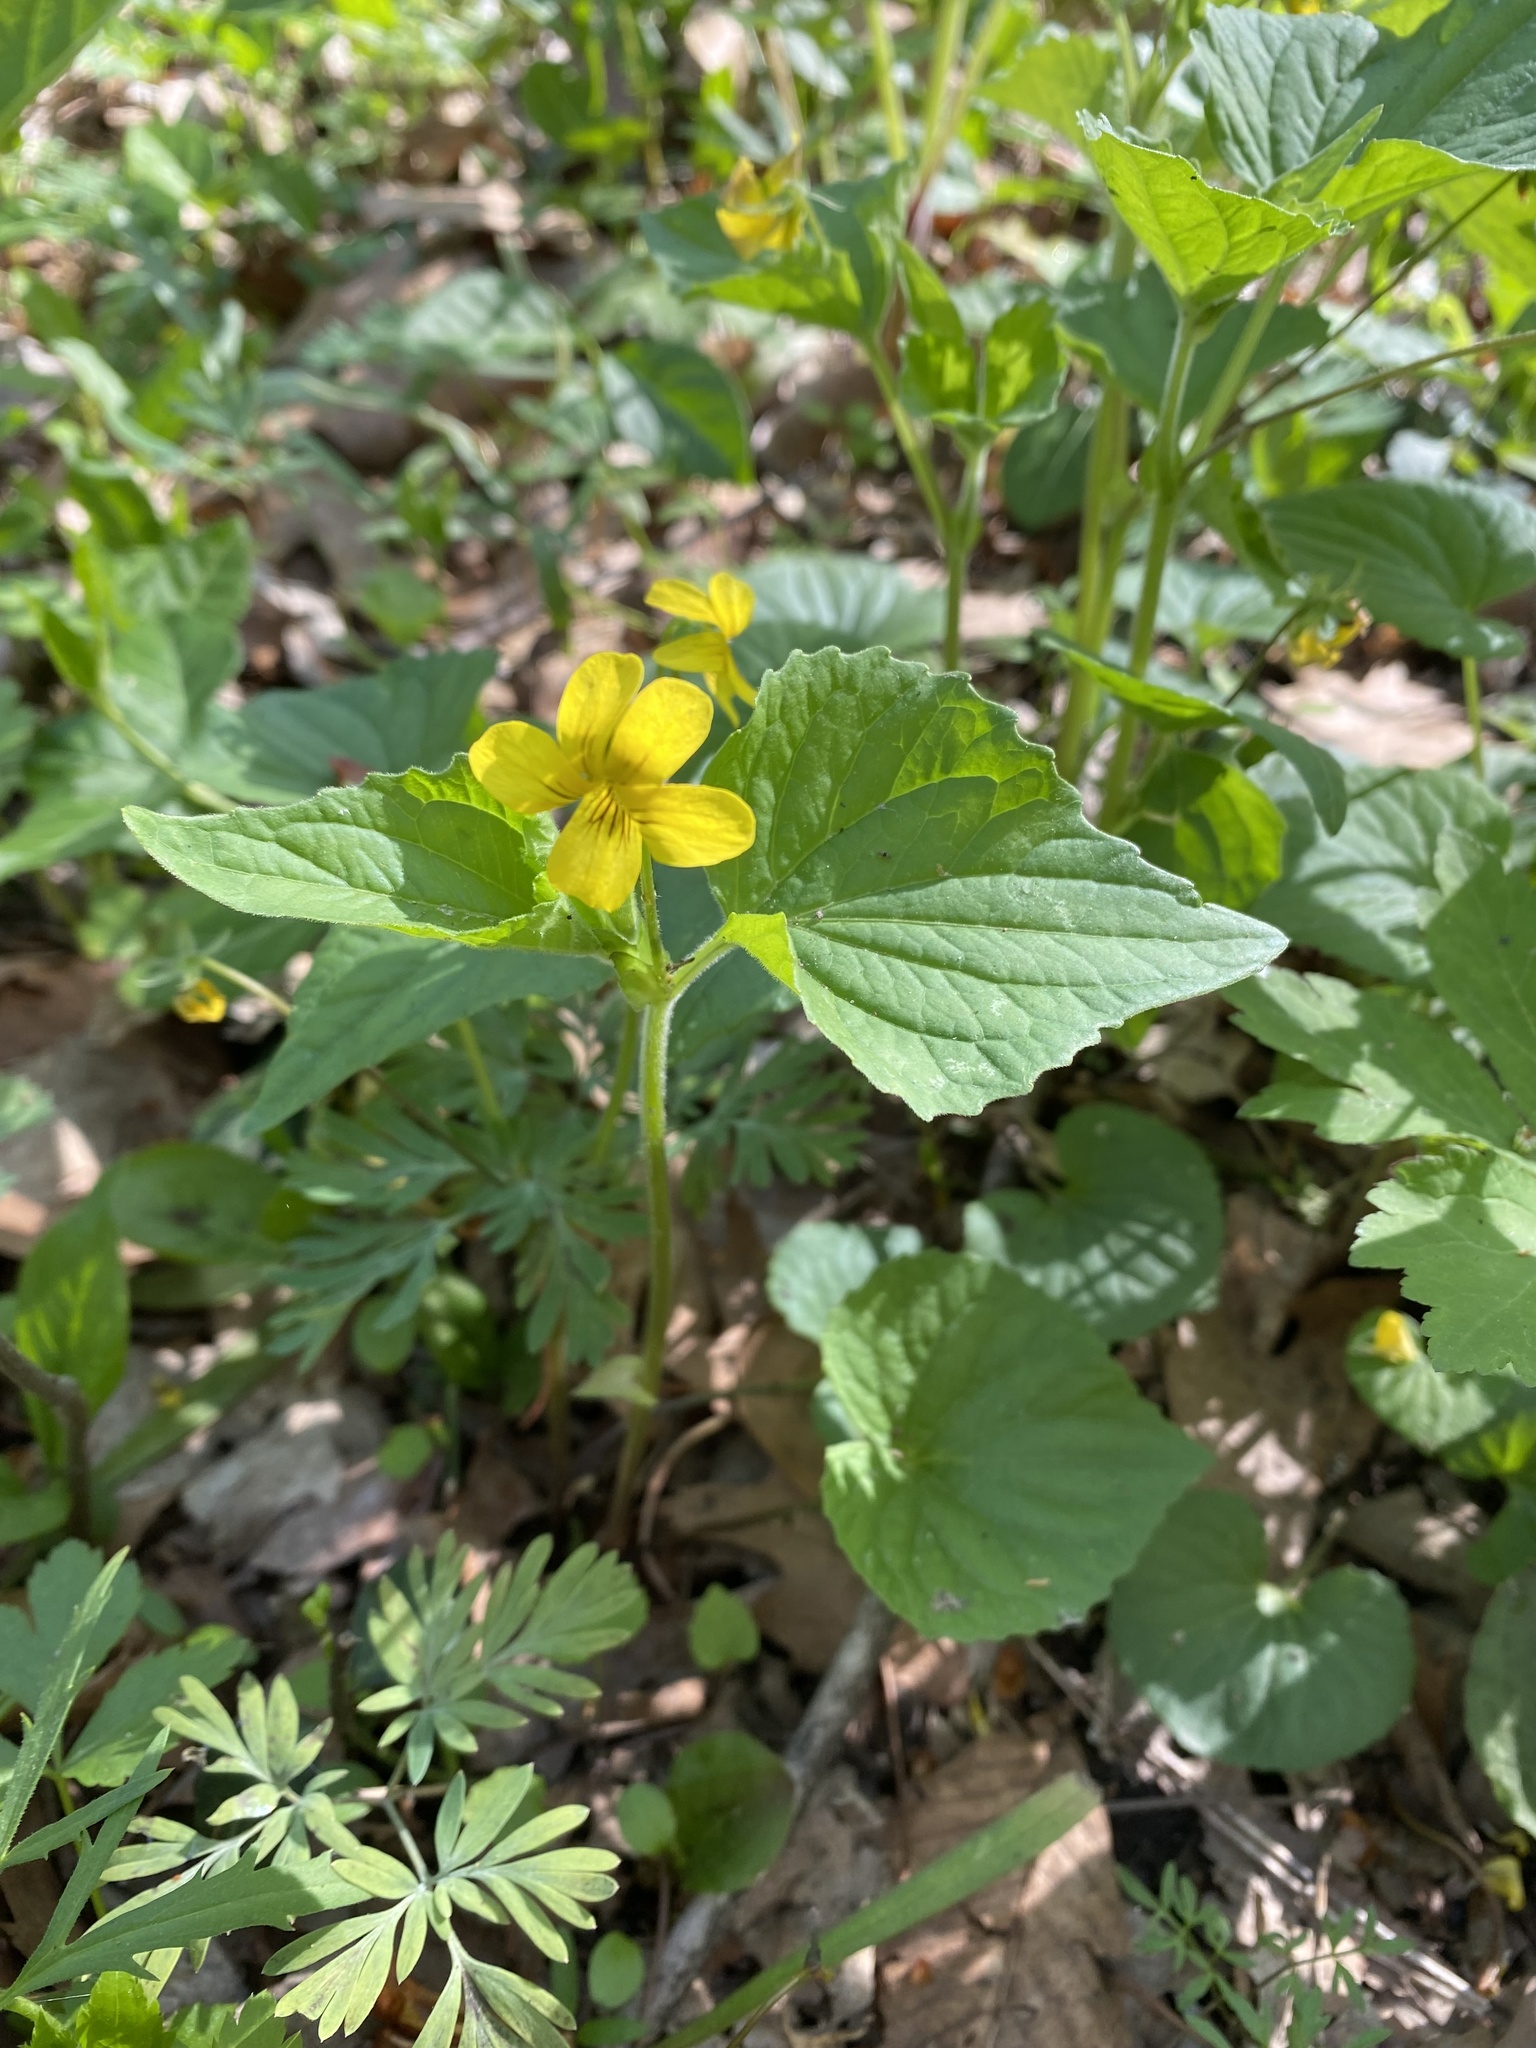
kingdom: Plantae
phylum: Tracheophyta
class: Magnoliopsida
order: Malpighiales
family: Violaceae
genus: Viola
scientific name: Viola eriocarpa
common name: Smooth yellow violet
